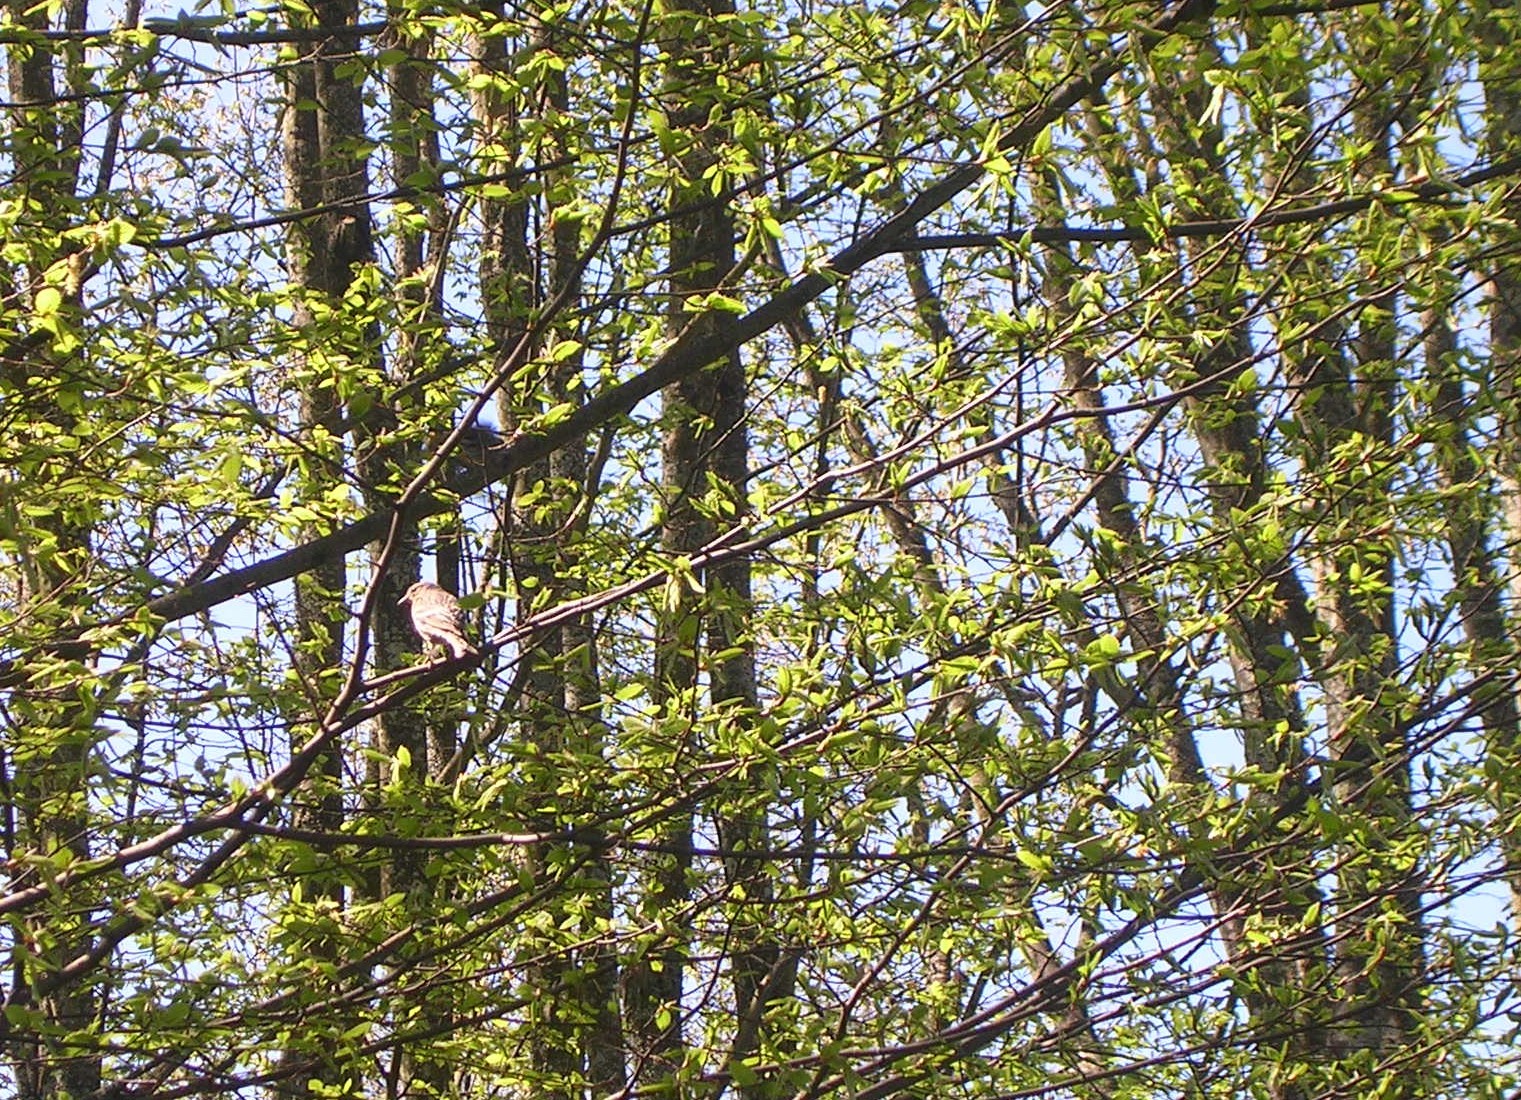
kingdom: Animalia
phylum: Chordata
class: Aves
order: Passeriformes
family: Fringillidae
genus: Spinus
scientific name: Spinus pinus
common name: Pine siskin
